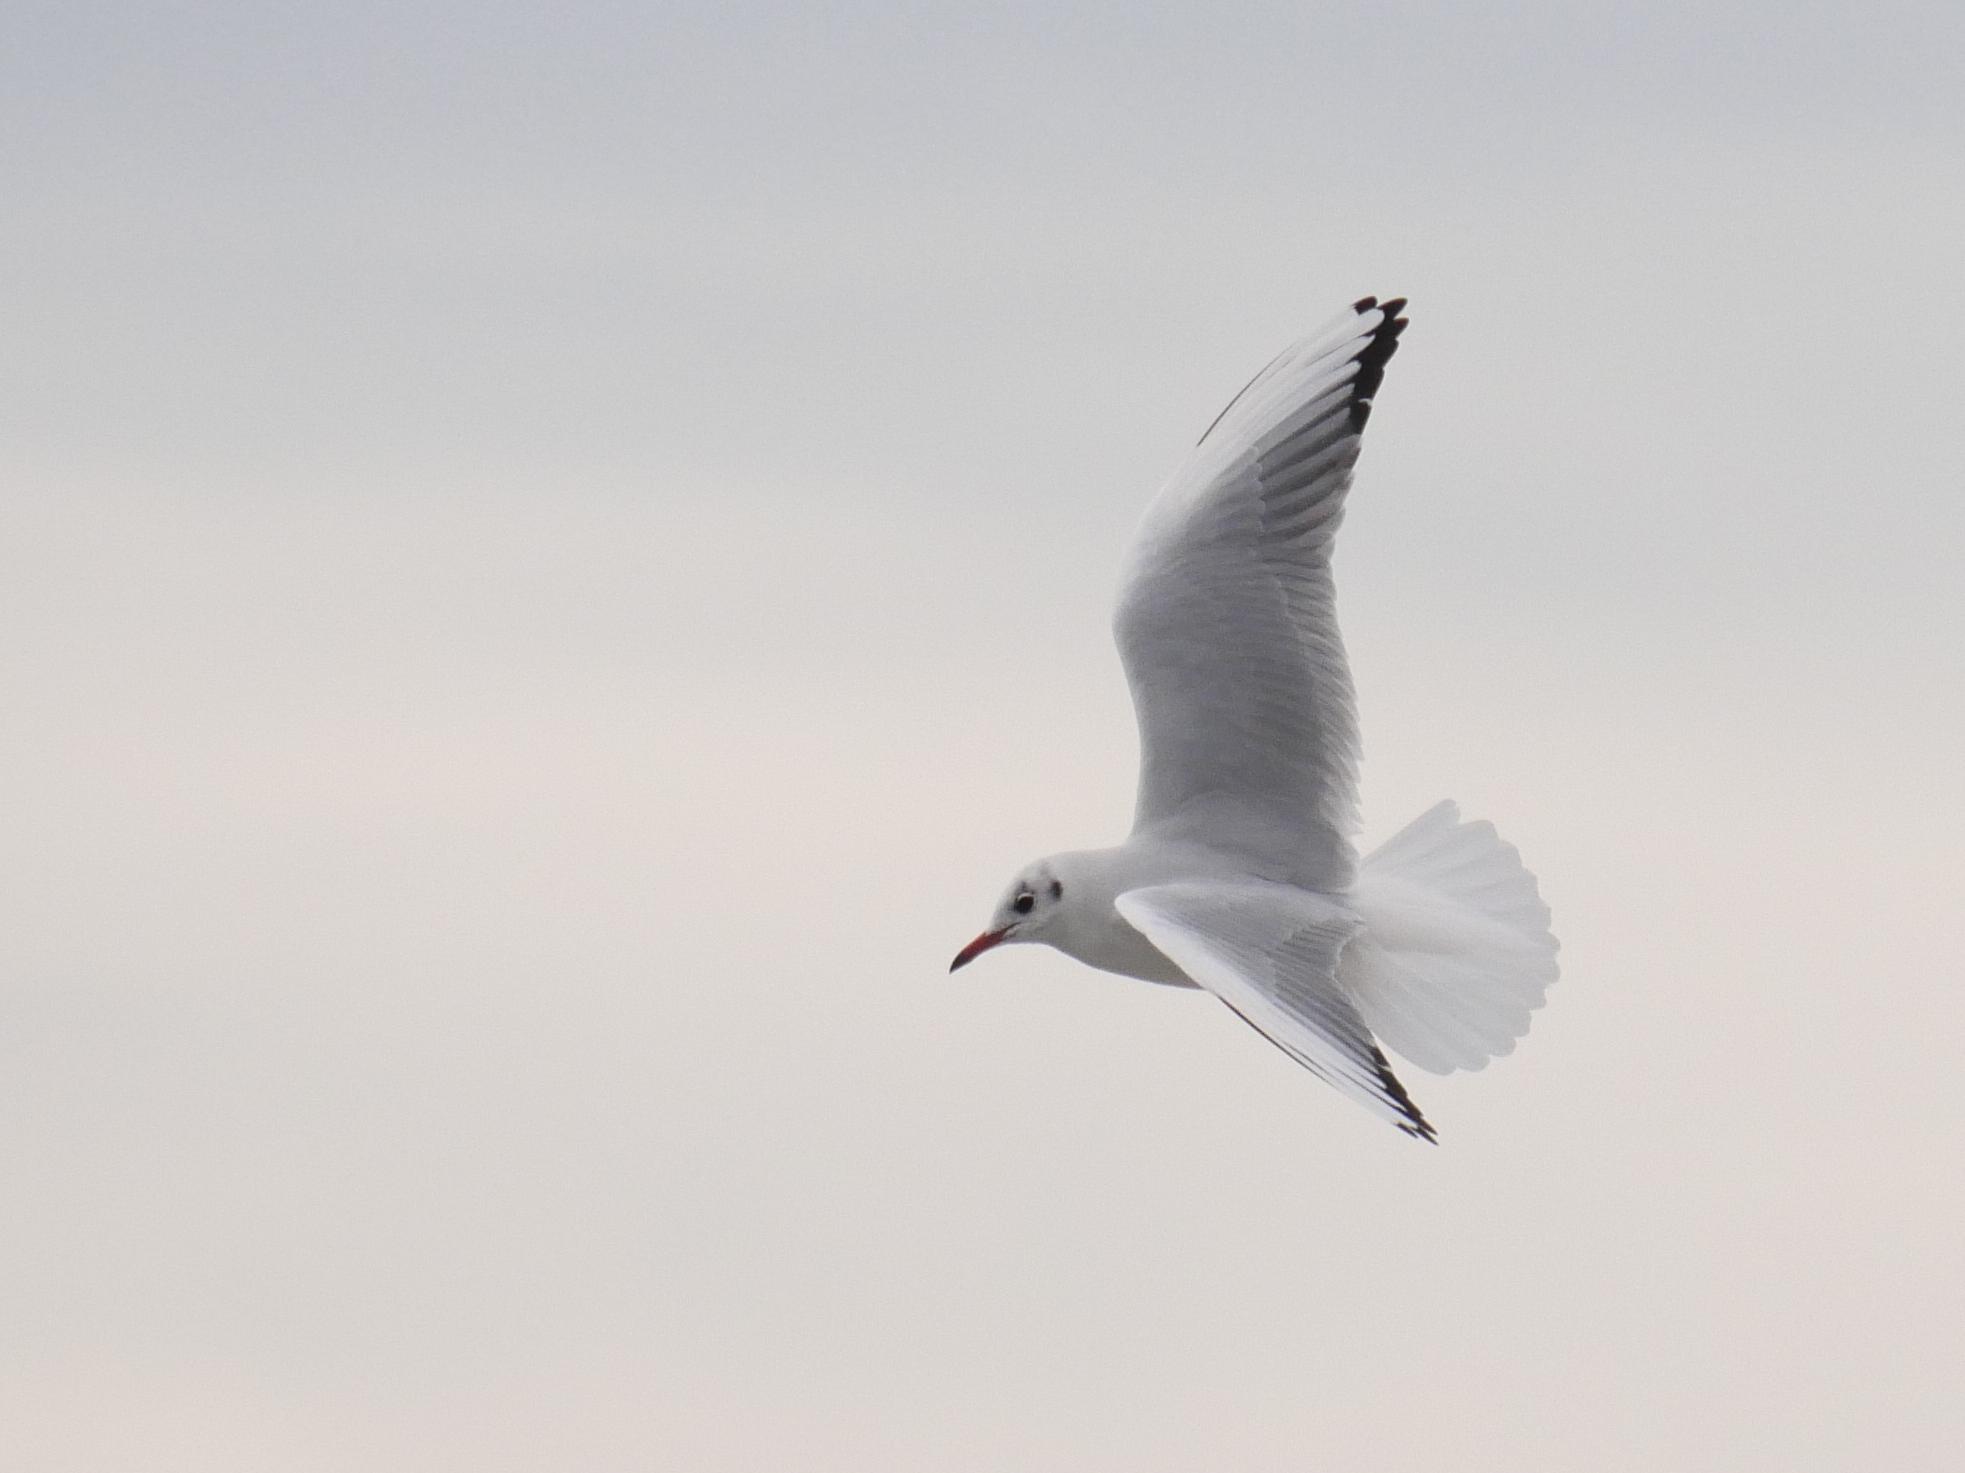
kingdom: Animalia
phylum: Chordata
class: Aves
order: Charadriiformes
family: Laridae
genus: Chroicocephalus
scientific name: Chroicocephalus ridibundus
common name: Black-headed gull
